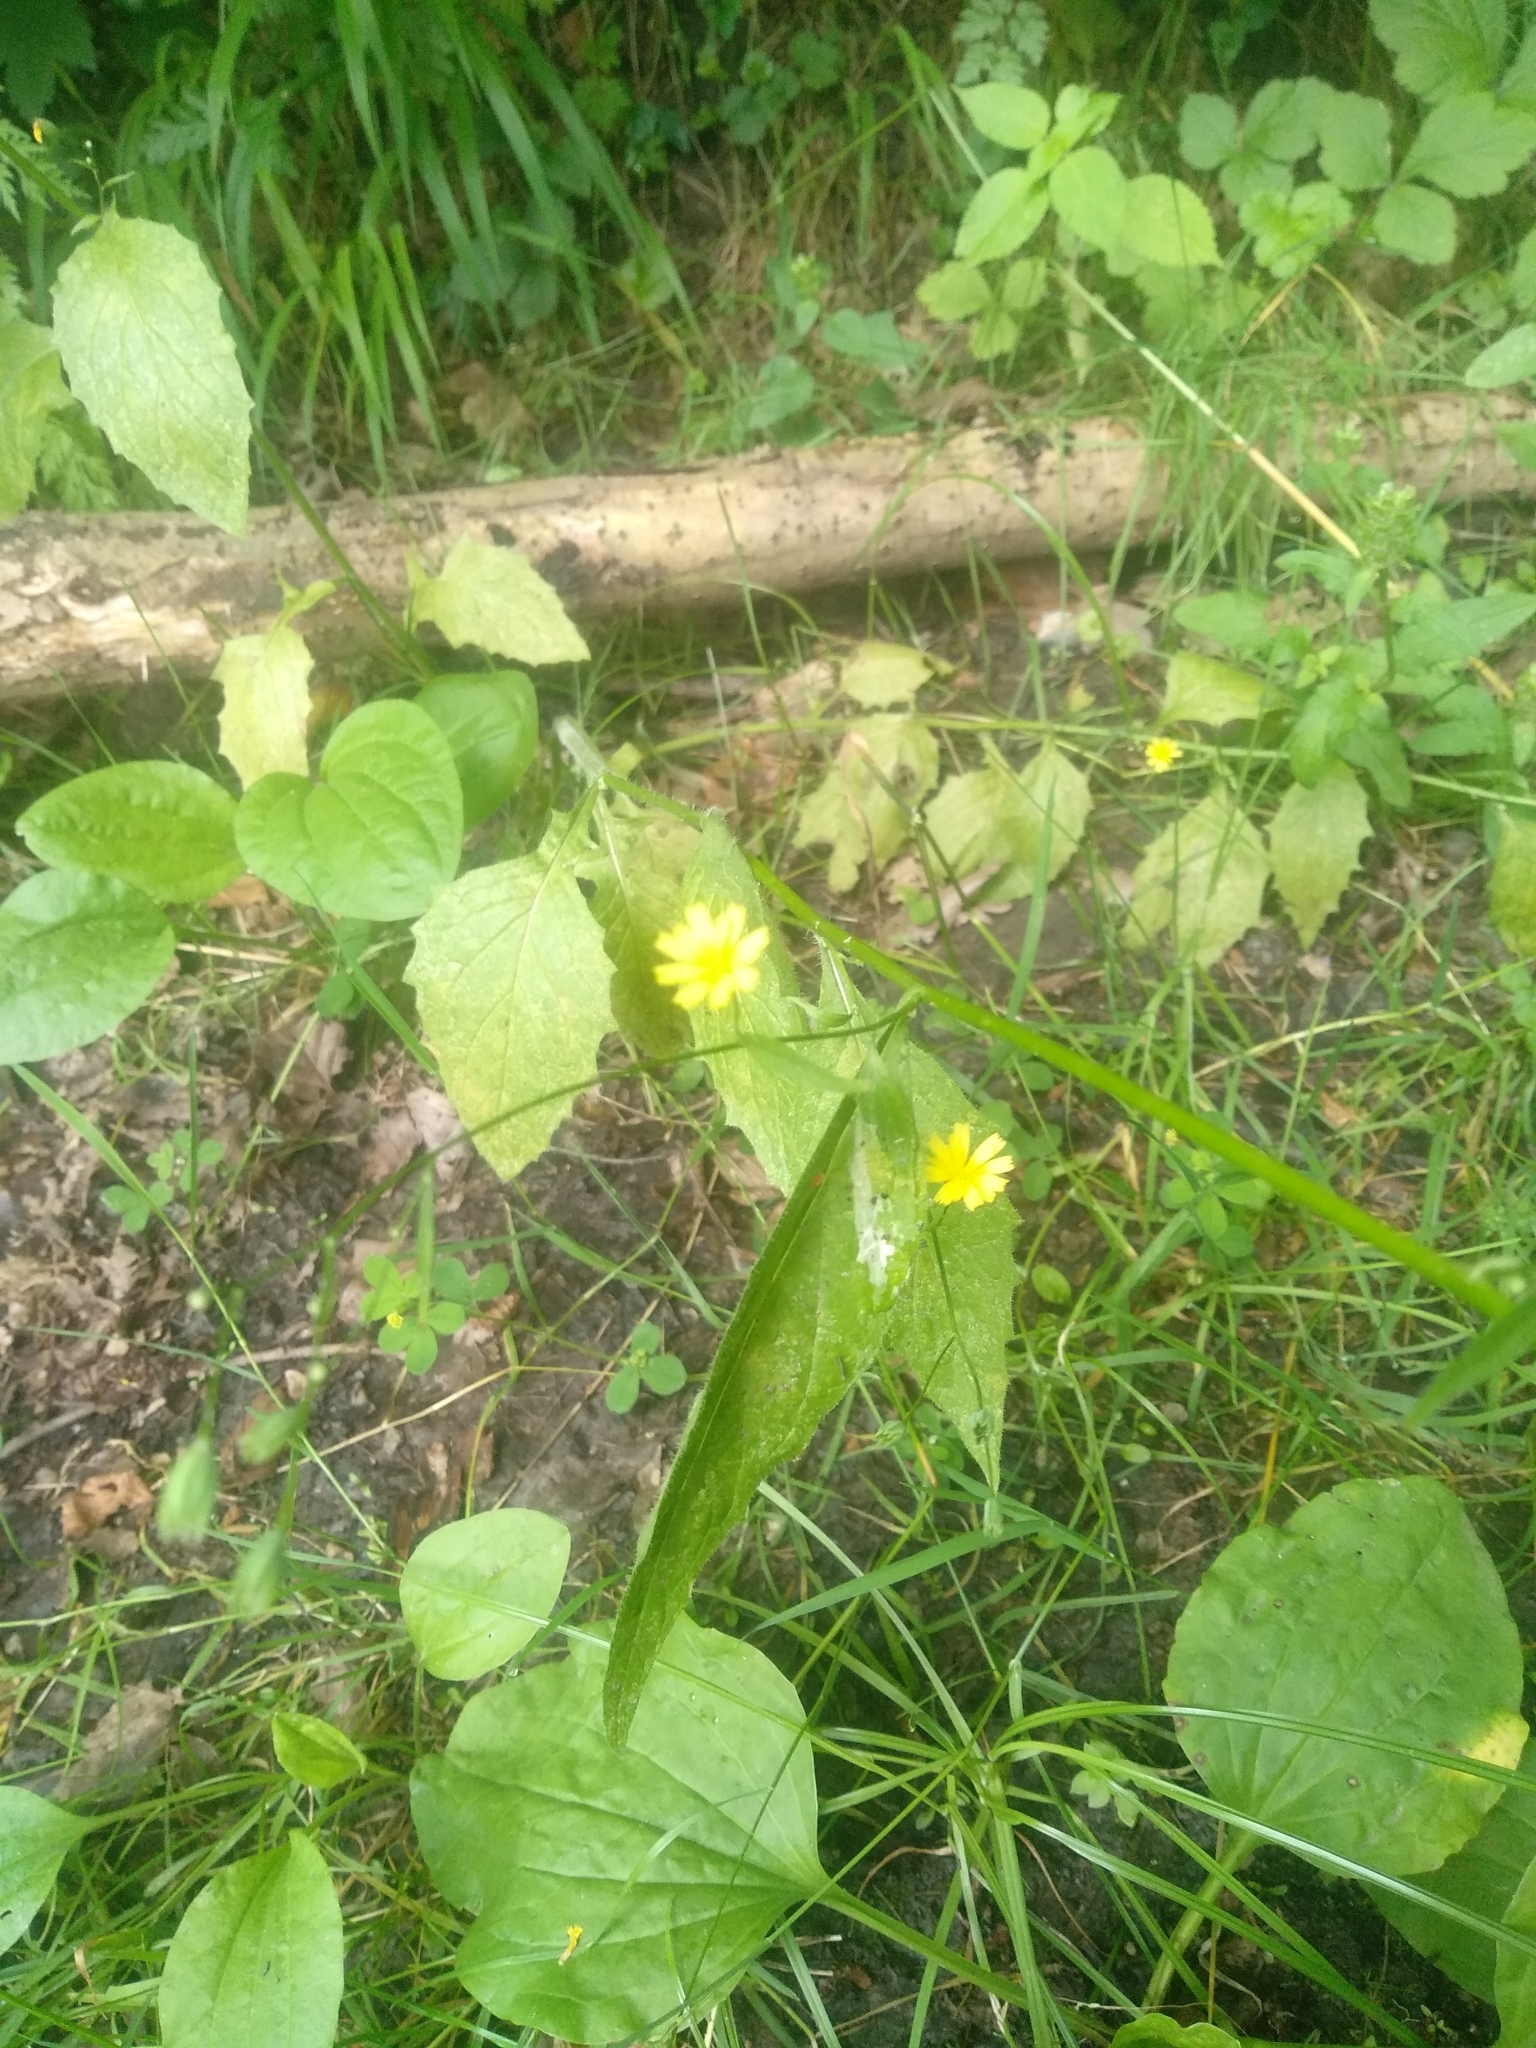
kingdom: Plantae
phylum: Tracheophyta
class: Magnoliopsida
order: Asterales
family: Asteraceae
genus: Lapsana
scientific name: Lapsana communis
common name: Nipplewort
